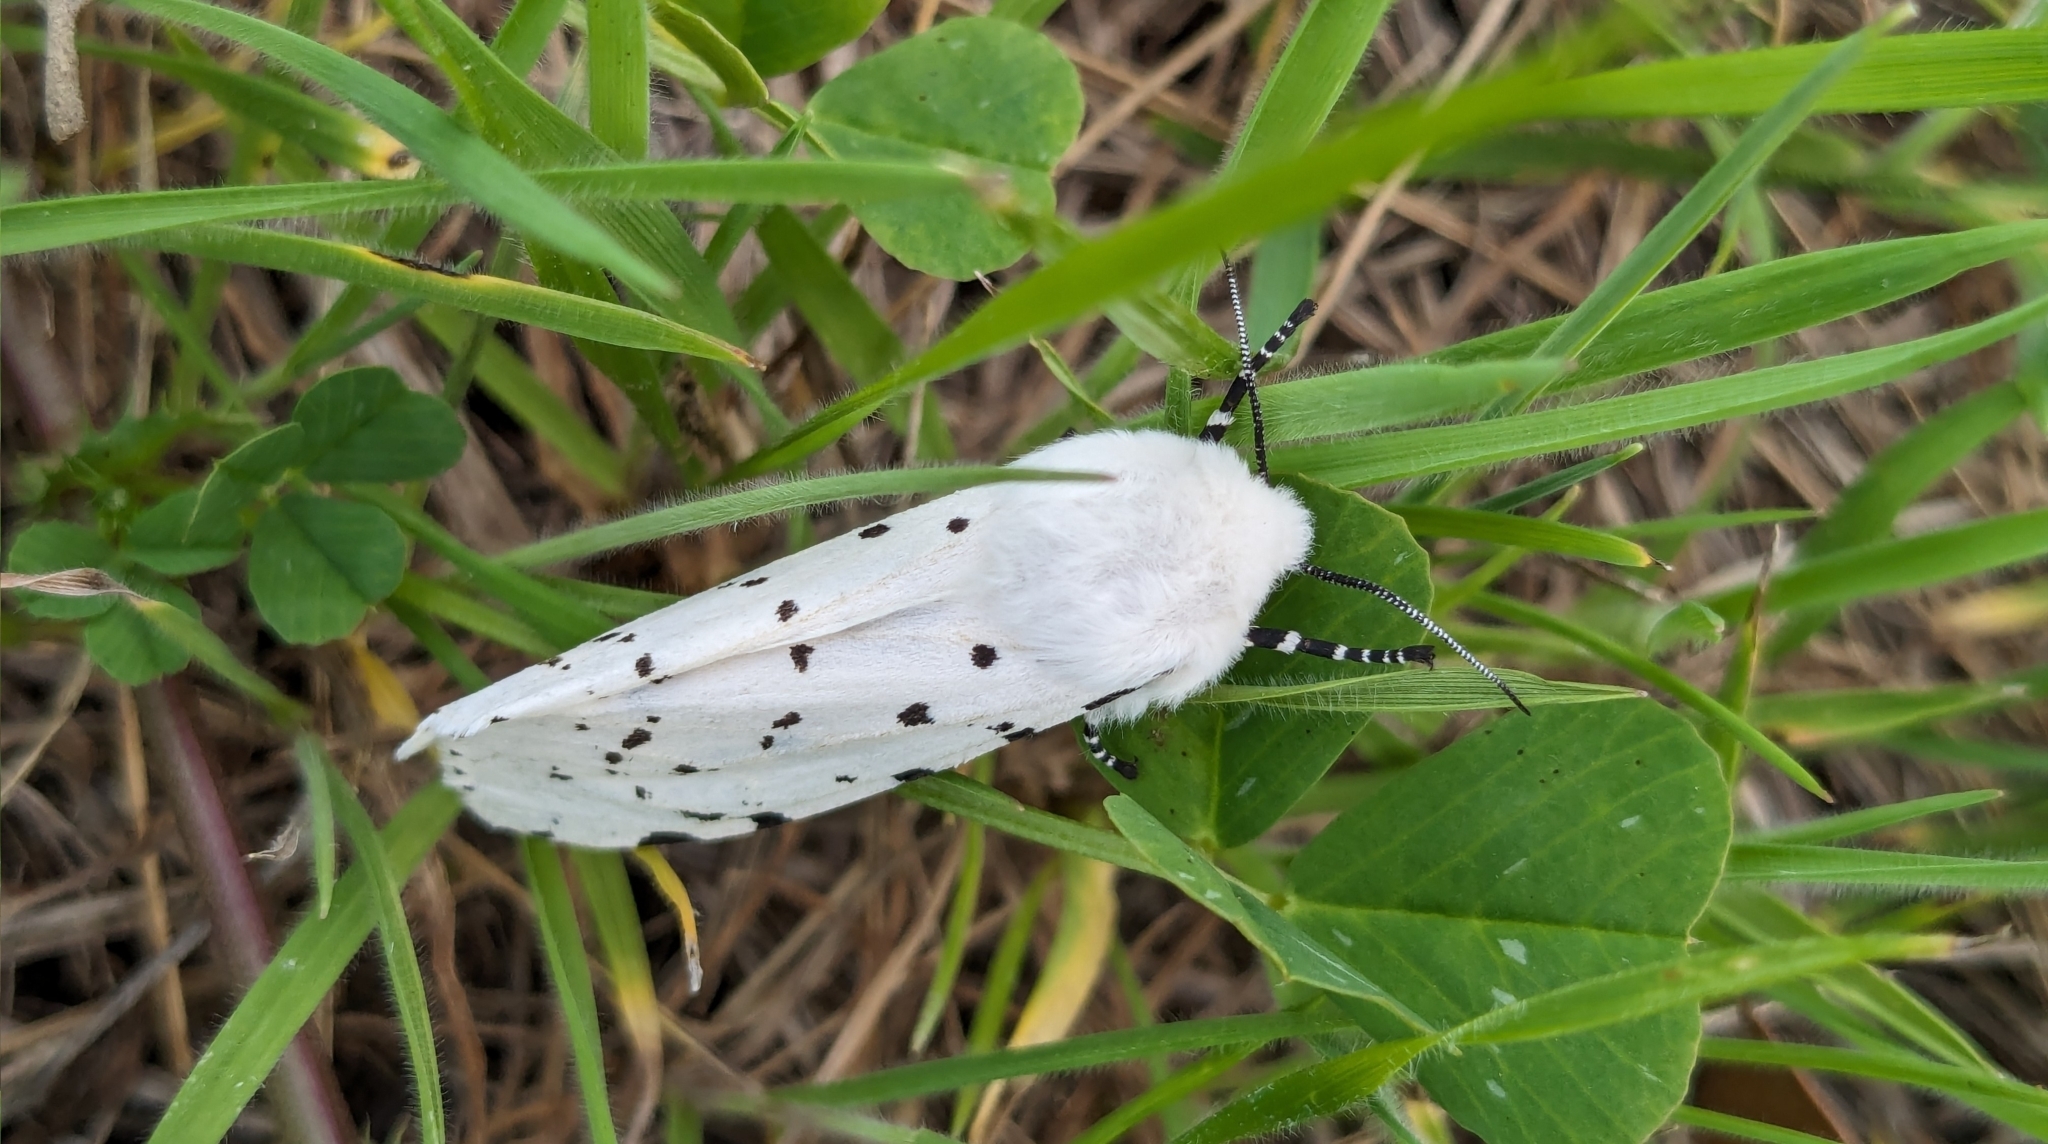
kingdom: Animalia
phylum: Arthropoda
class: Insecta
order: Lepidoptera
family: Erebidae
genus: Estigmene
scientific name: Estigmene acrea
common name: Salt marsh moth
